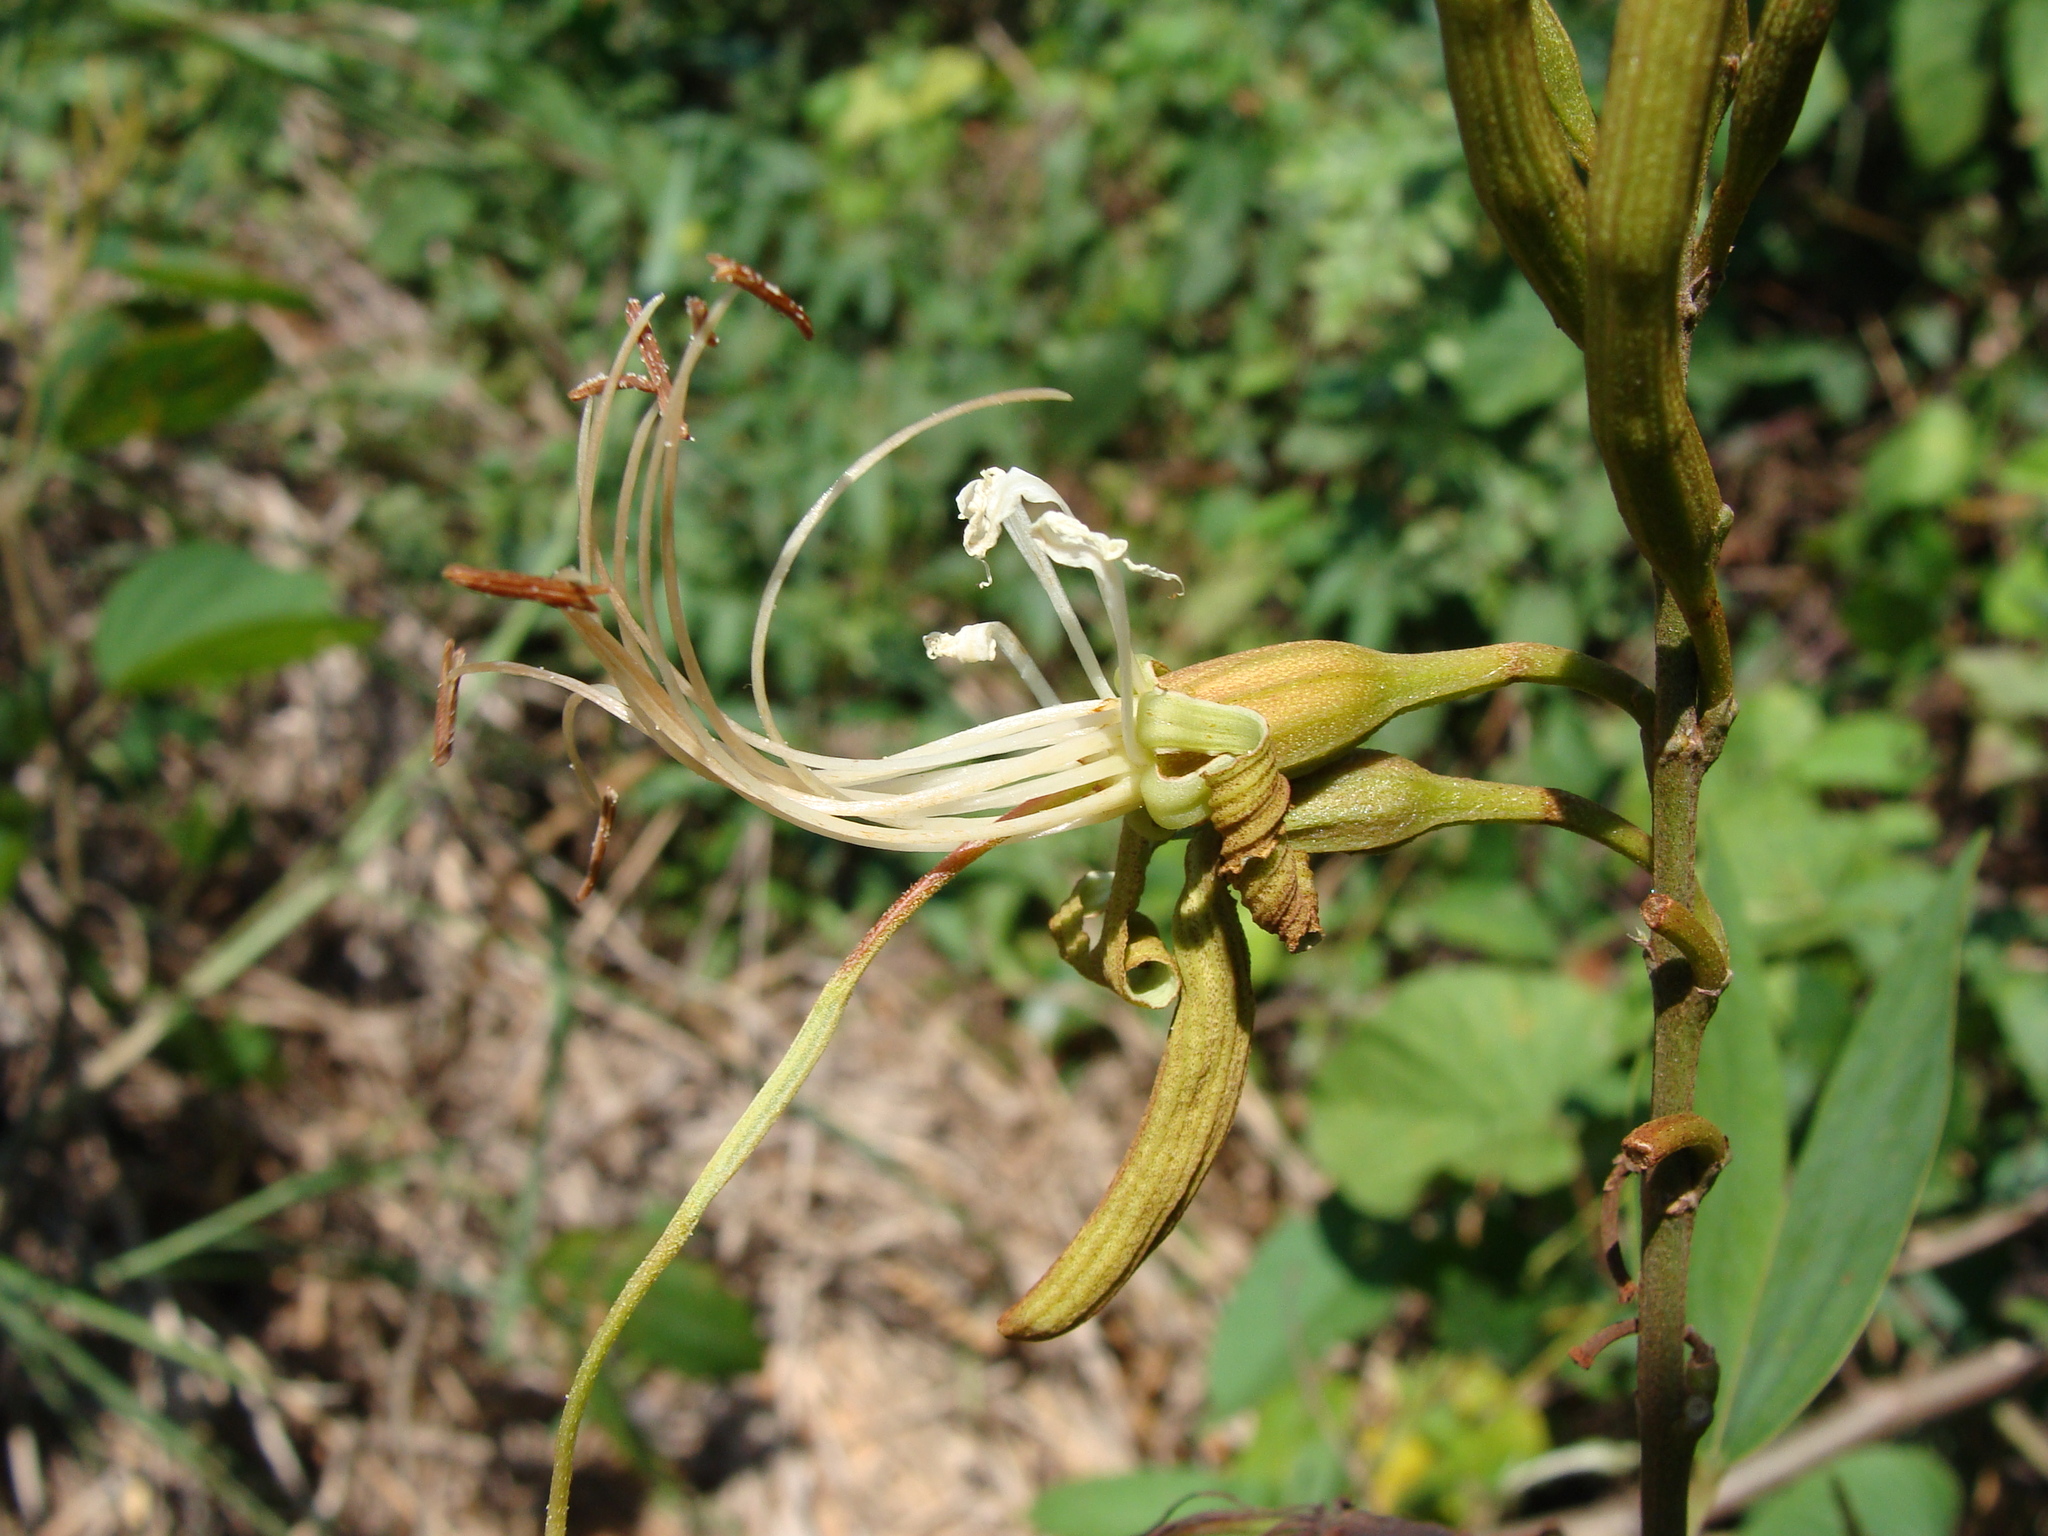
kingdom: Plantae
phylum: Tracheophyta
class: Magnoliopsida
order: Fabales
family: Fabaceae
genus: Bauhinia
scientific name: Bauhinia ungulata
